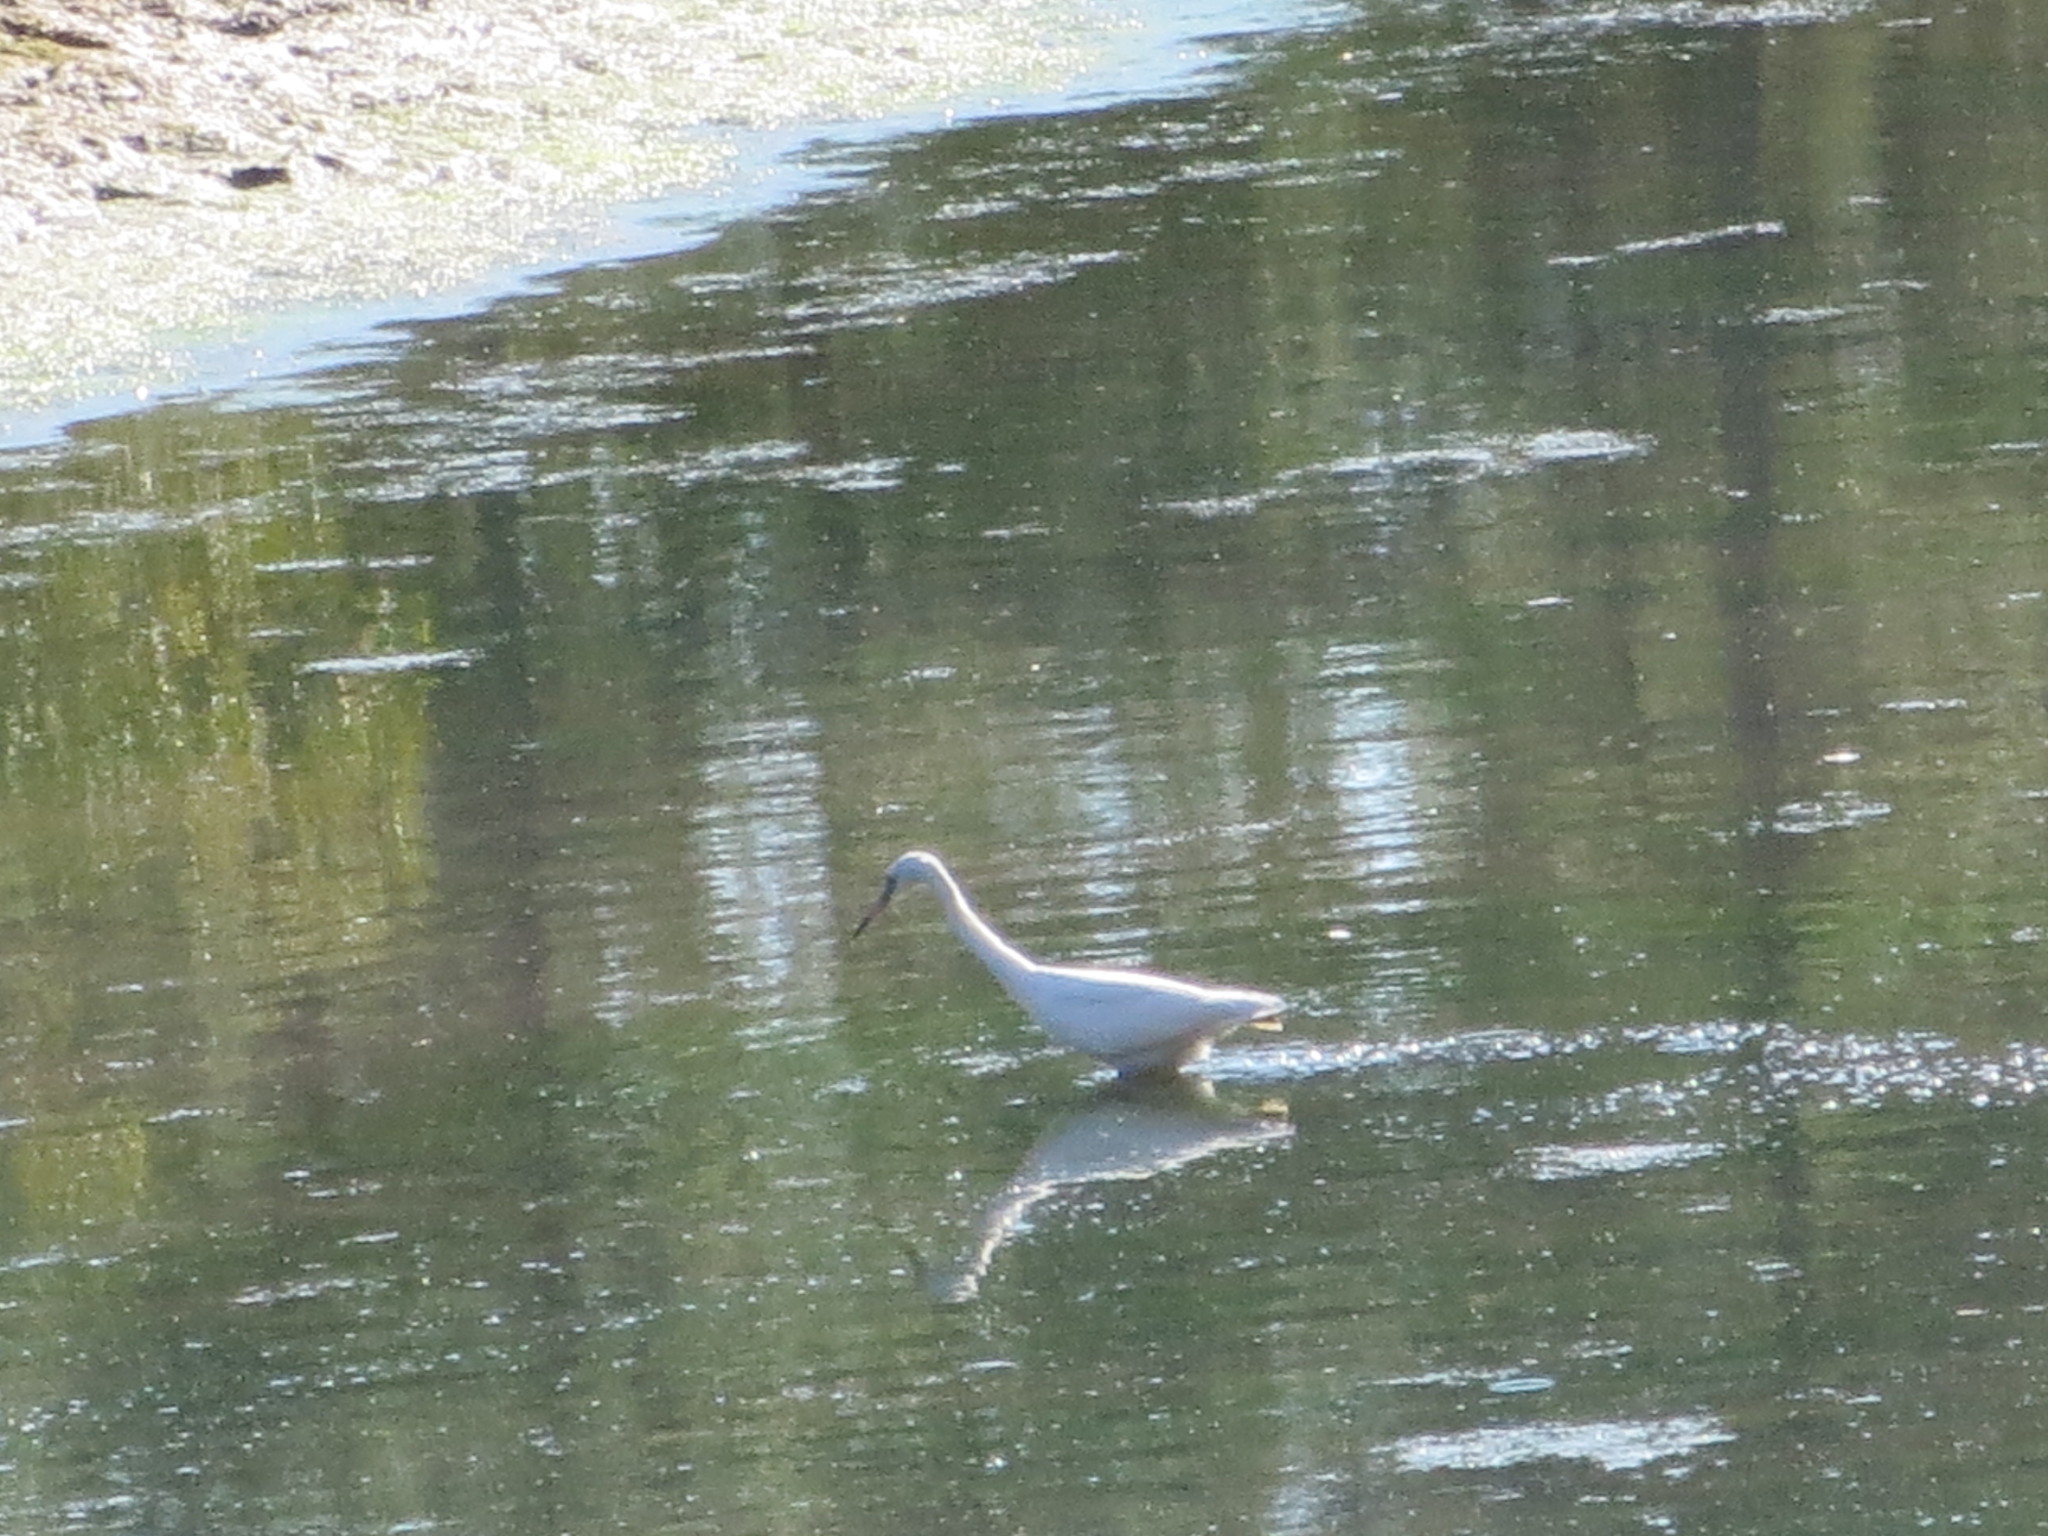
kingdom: Animalia
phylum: Chordata
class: Aves
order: Pelecaniformes
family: Ardeidae
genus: Egretta
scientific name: Egretta caerulea
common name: Little blue heron
